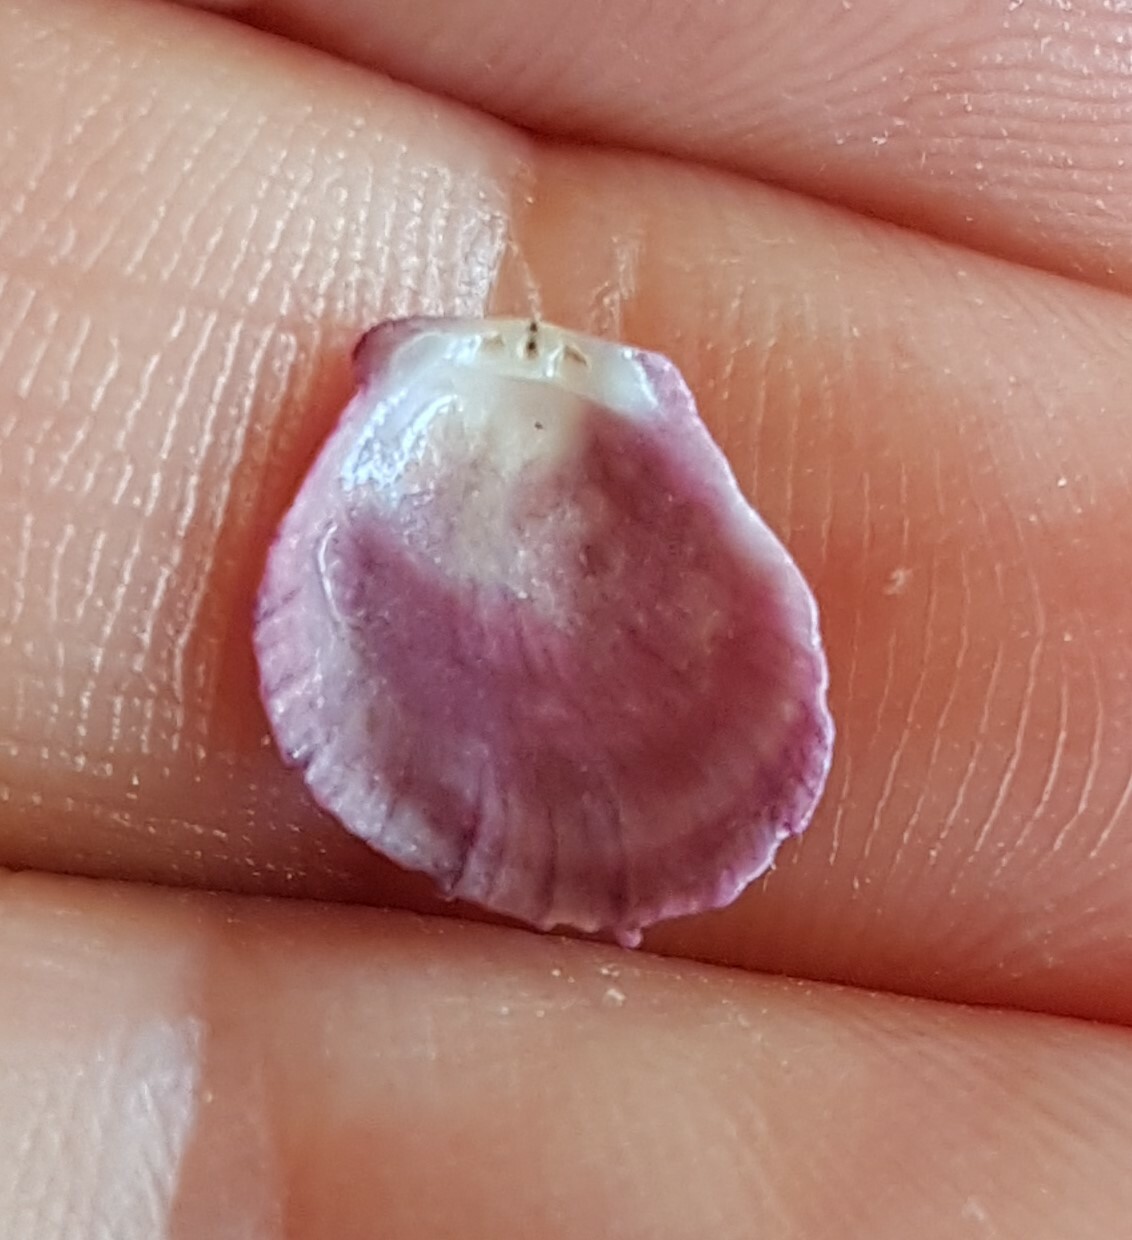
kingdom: Animalia
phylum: Mollusca
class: Bivalvia
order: Pectinida
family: Spondylidae
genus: Spondylus
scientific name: Spondylus gaederopus
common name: European thorny oyster
